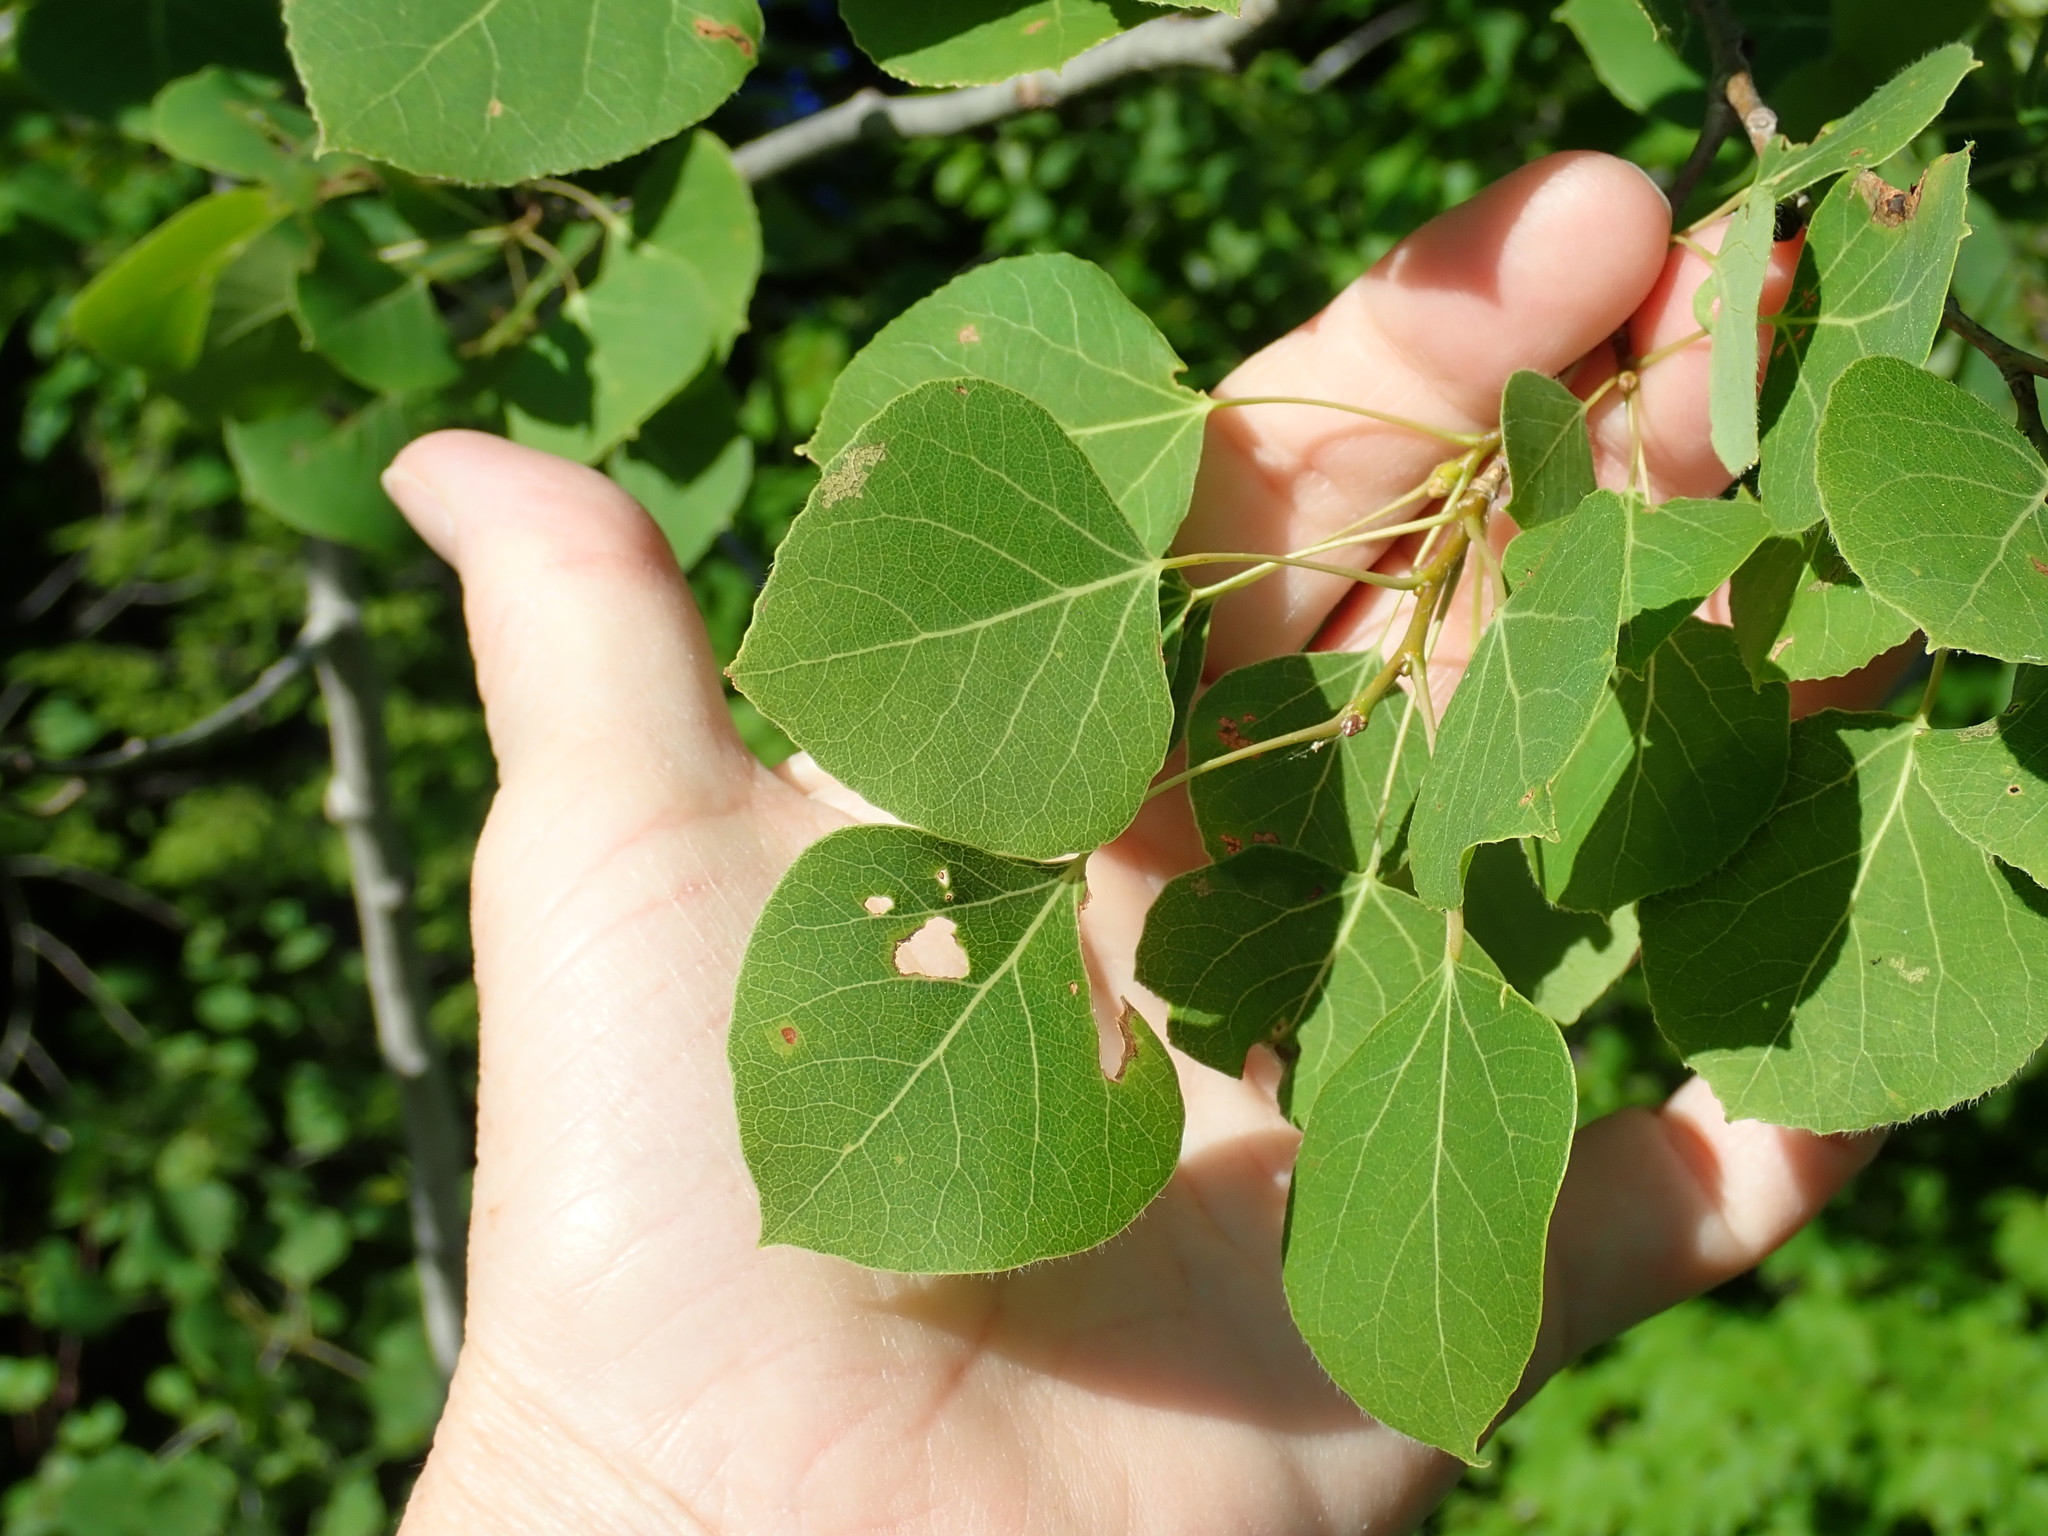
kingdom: Plantae
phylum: Tracheophyta
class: Magnoliopsida
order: Malpighiales
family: Salicaceae
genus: Populus
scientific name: Populus tremuloides
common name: Quaking aspen
